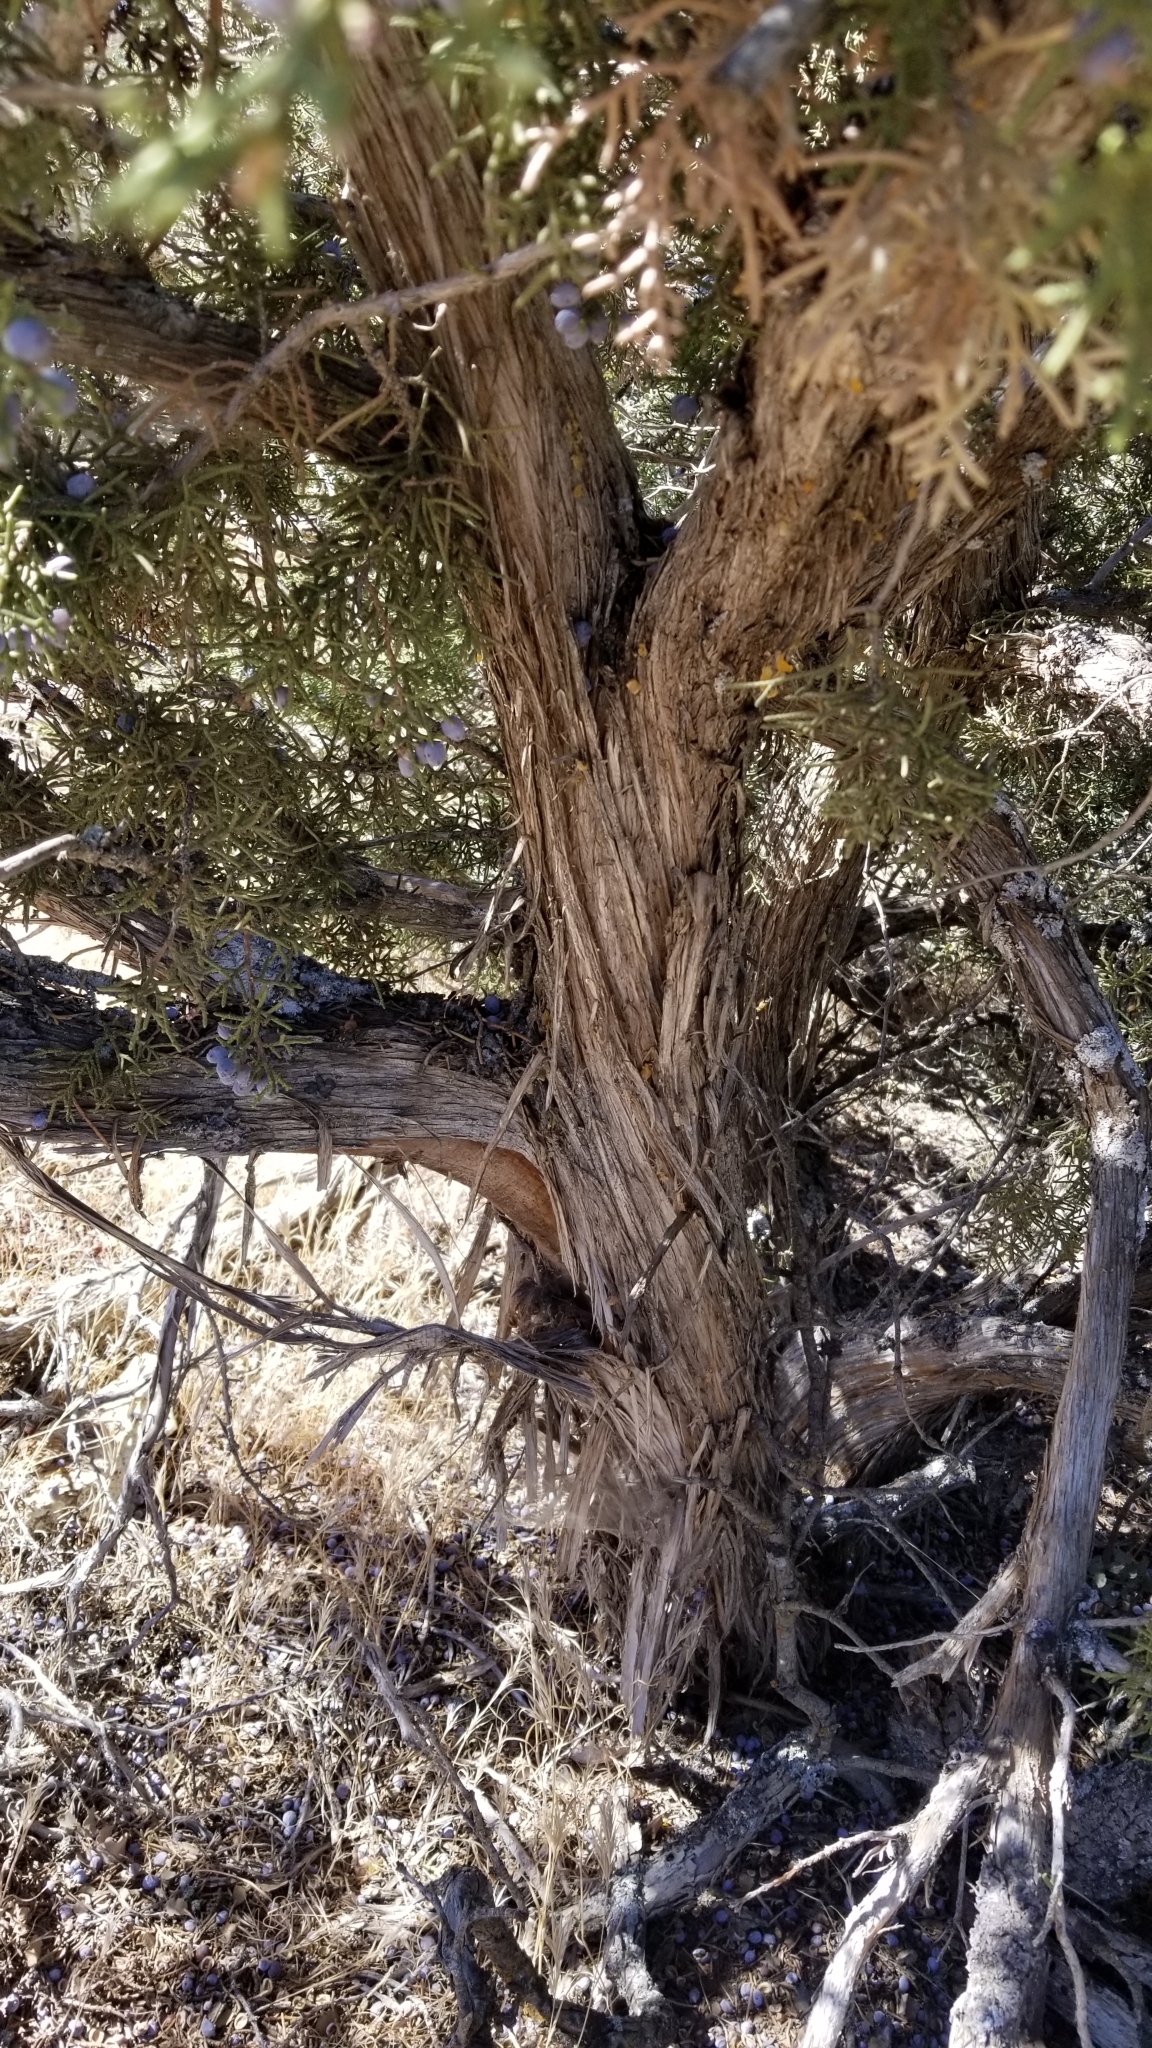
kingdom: Plantae
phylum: Tracheophyta
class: Pinopsida
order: Pinales
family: Cupressaceae
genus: Juniperus
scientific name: Juniperus californica
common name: California juniper
